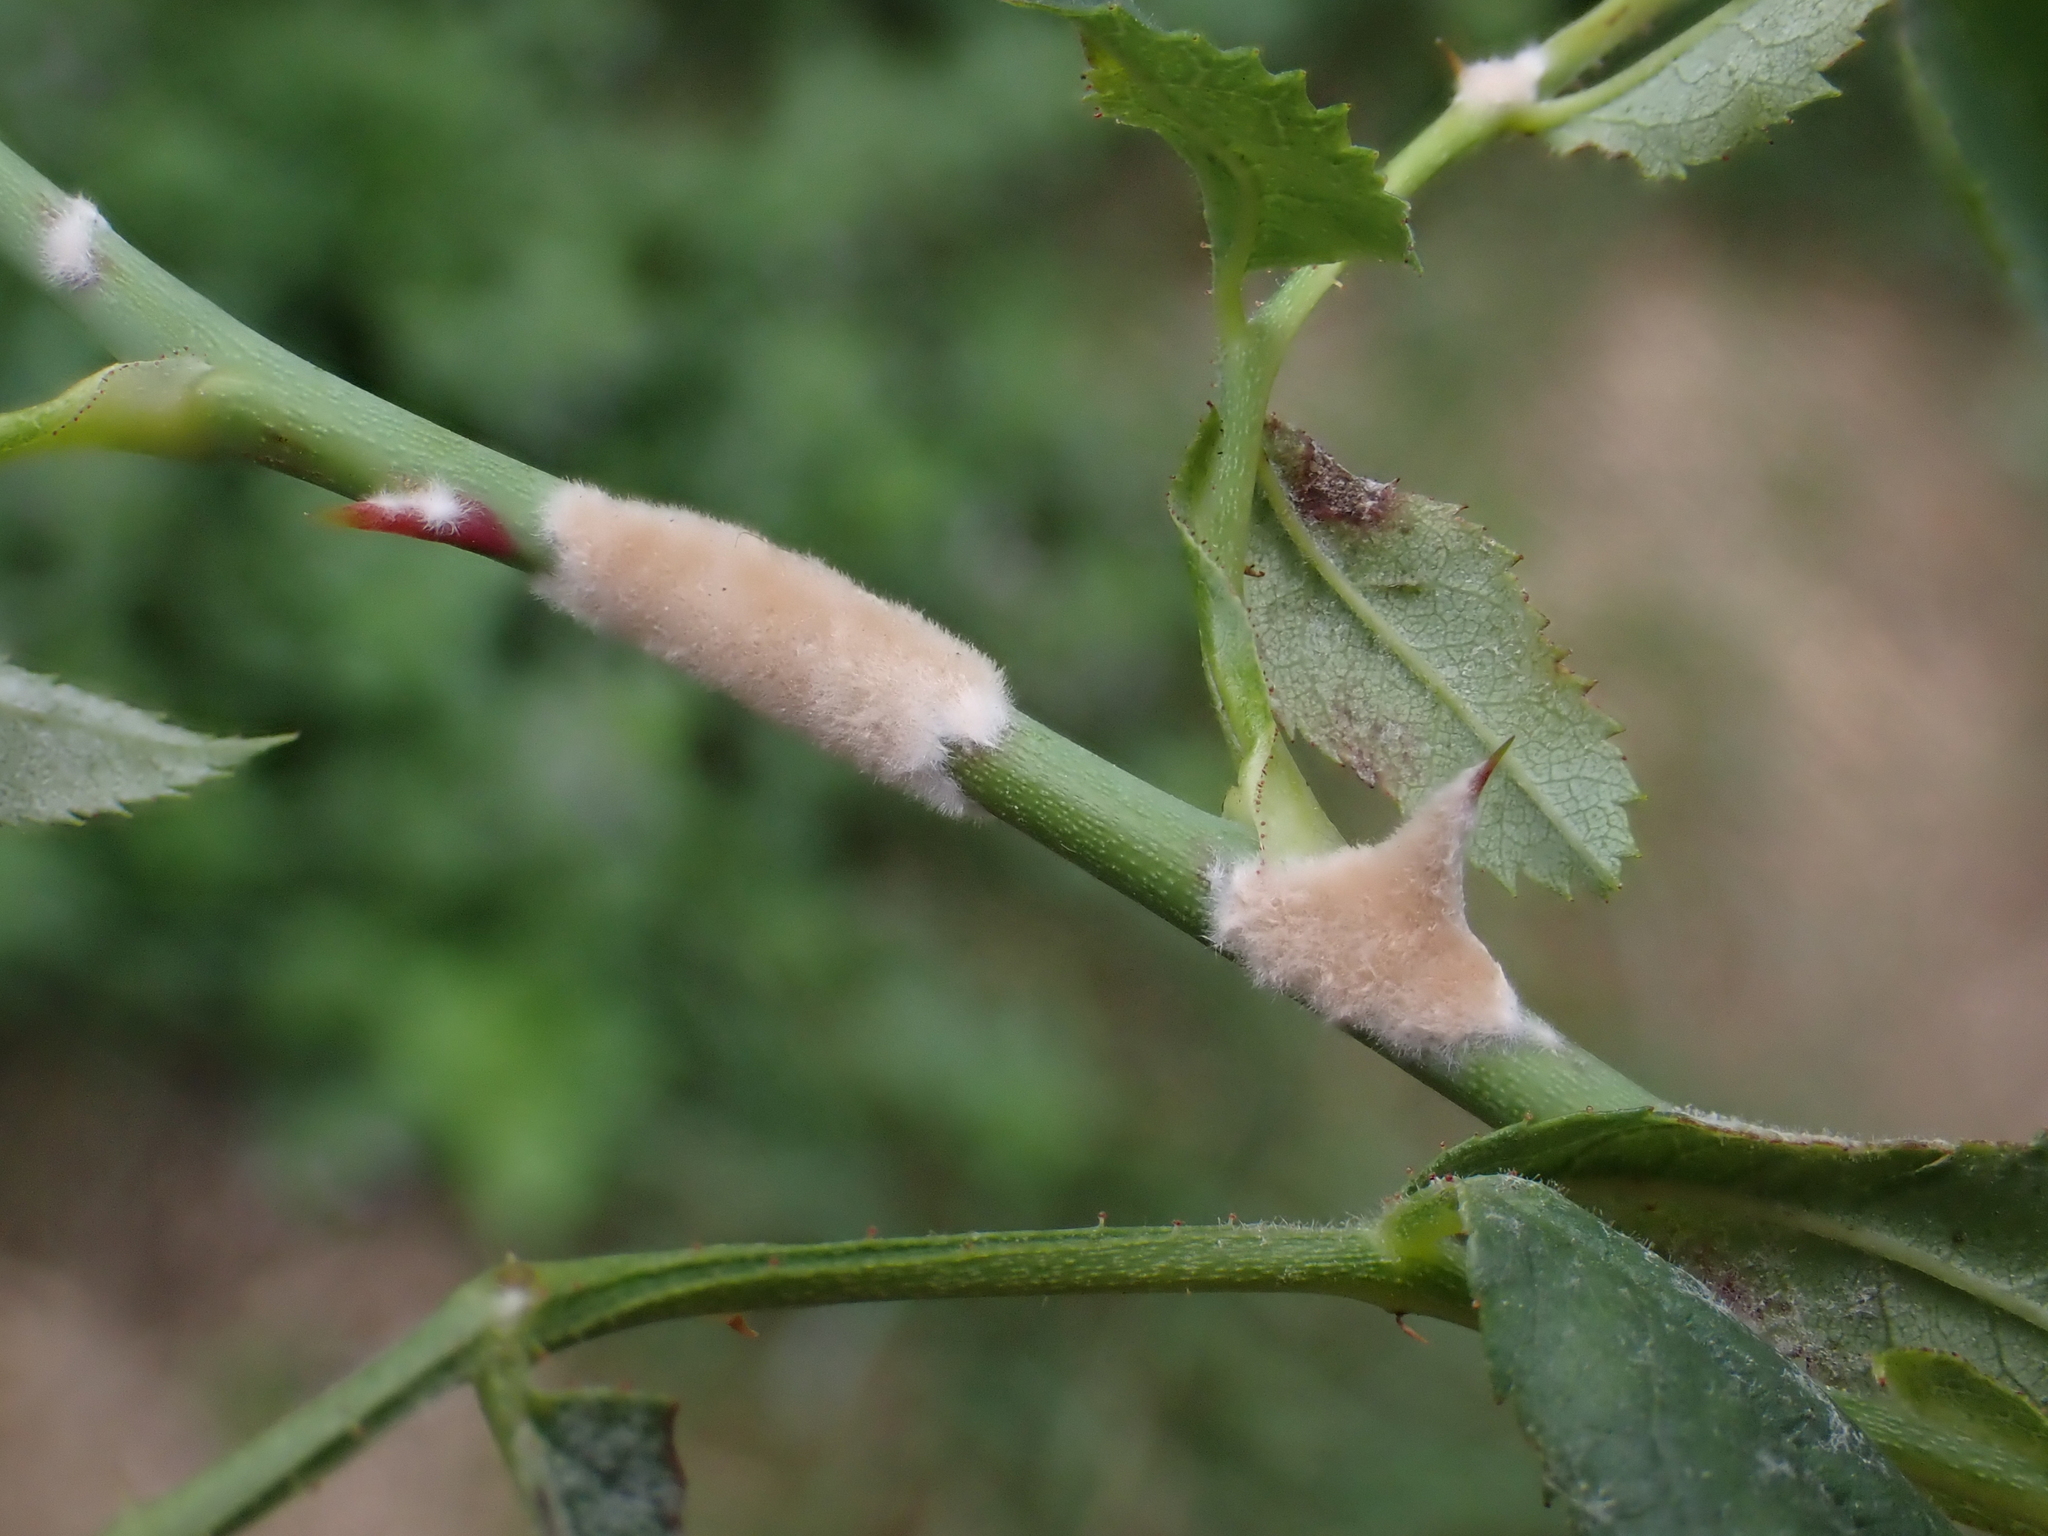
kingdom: Fungi
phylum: Ascomycota
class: Leotiomycetes
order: Helotiales
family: Erysiphaceae
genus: Podosphaera
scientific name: Podosphaera pannosa
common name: Rose mildew
